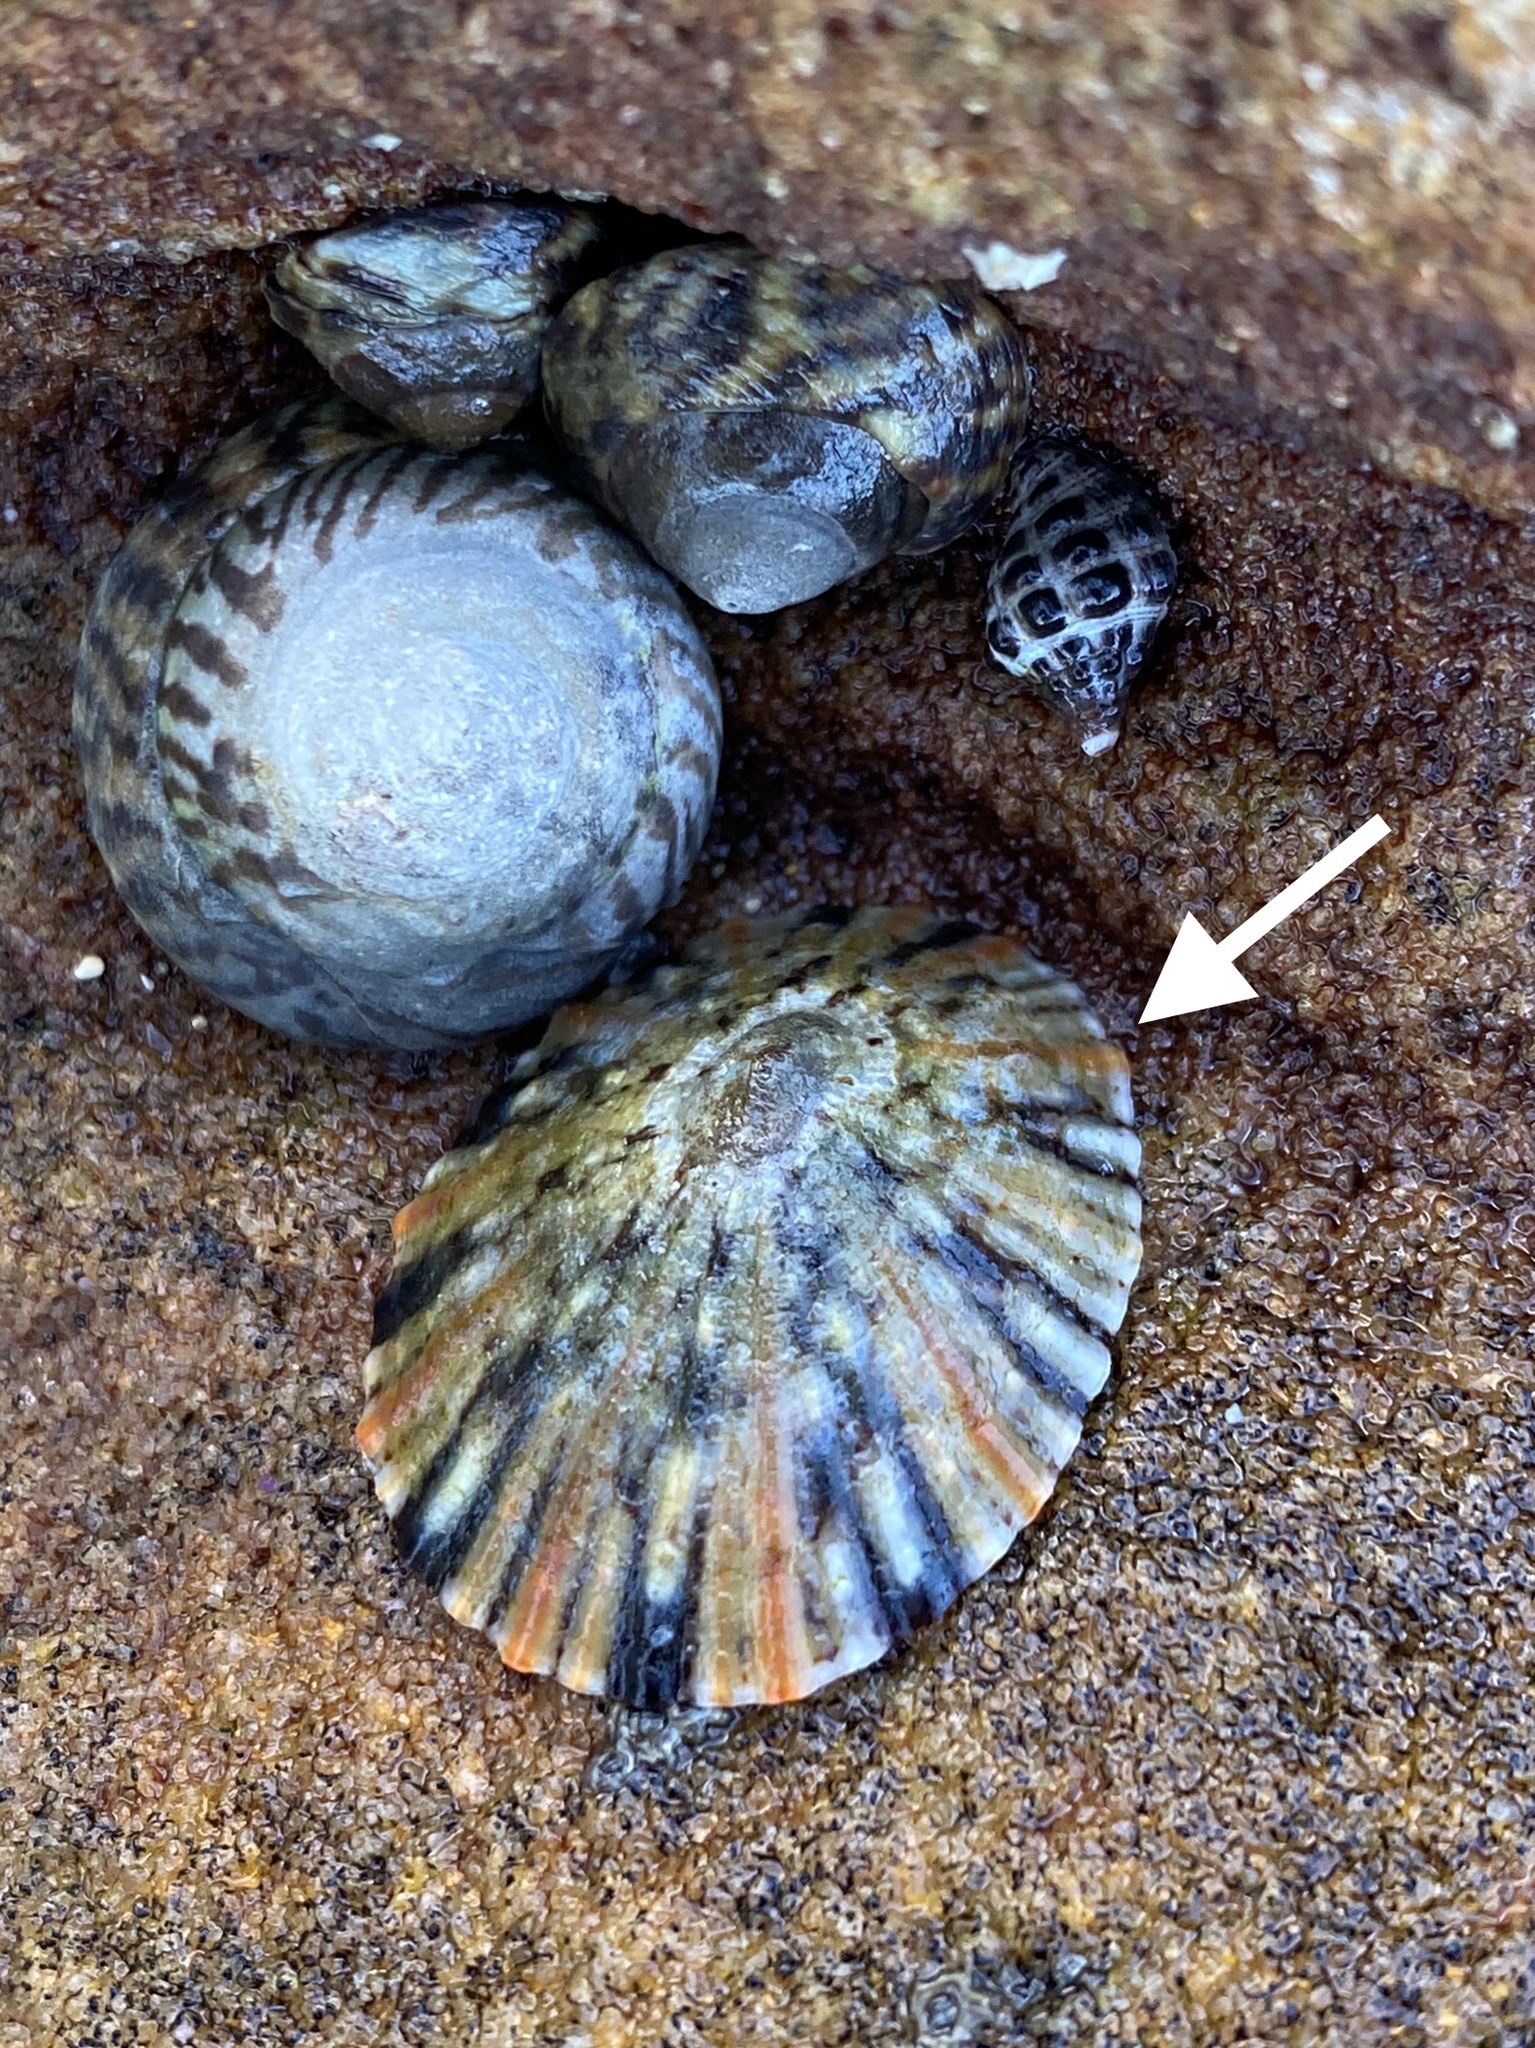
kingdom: Animalia
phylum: Mollusca
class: Gastropoda
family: Nacellidae
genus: Cellana
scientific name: Cellana tramoserica
